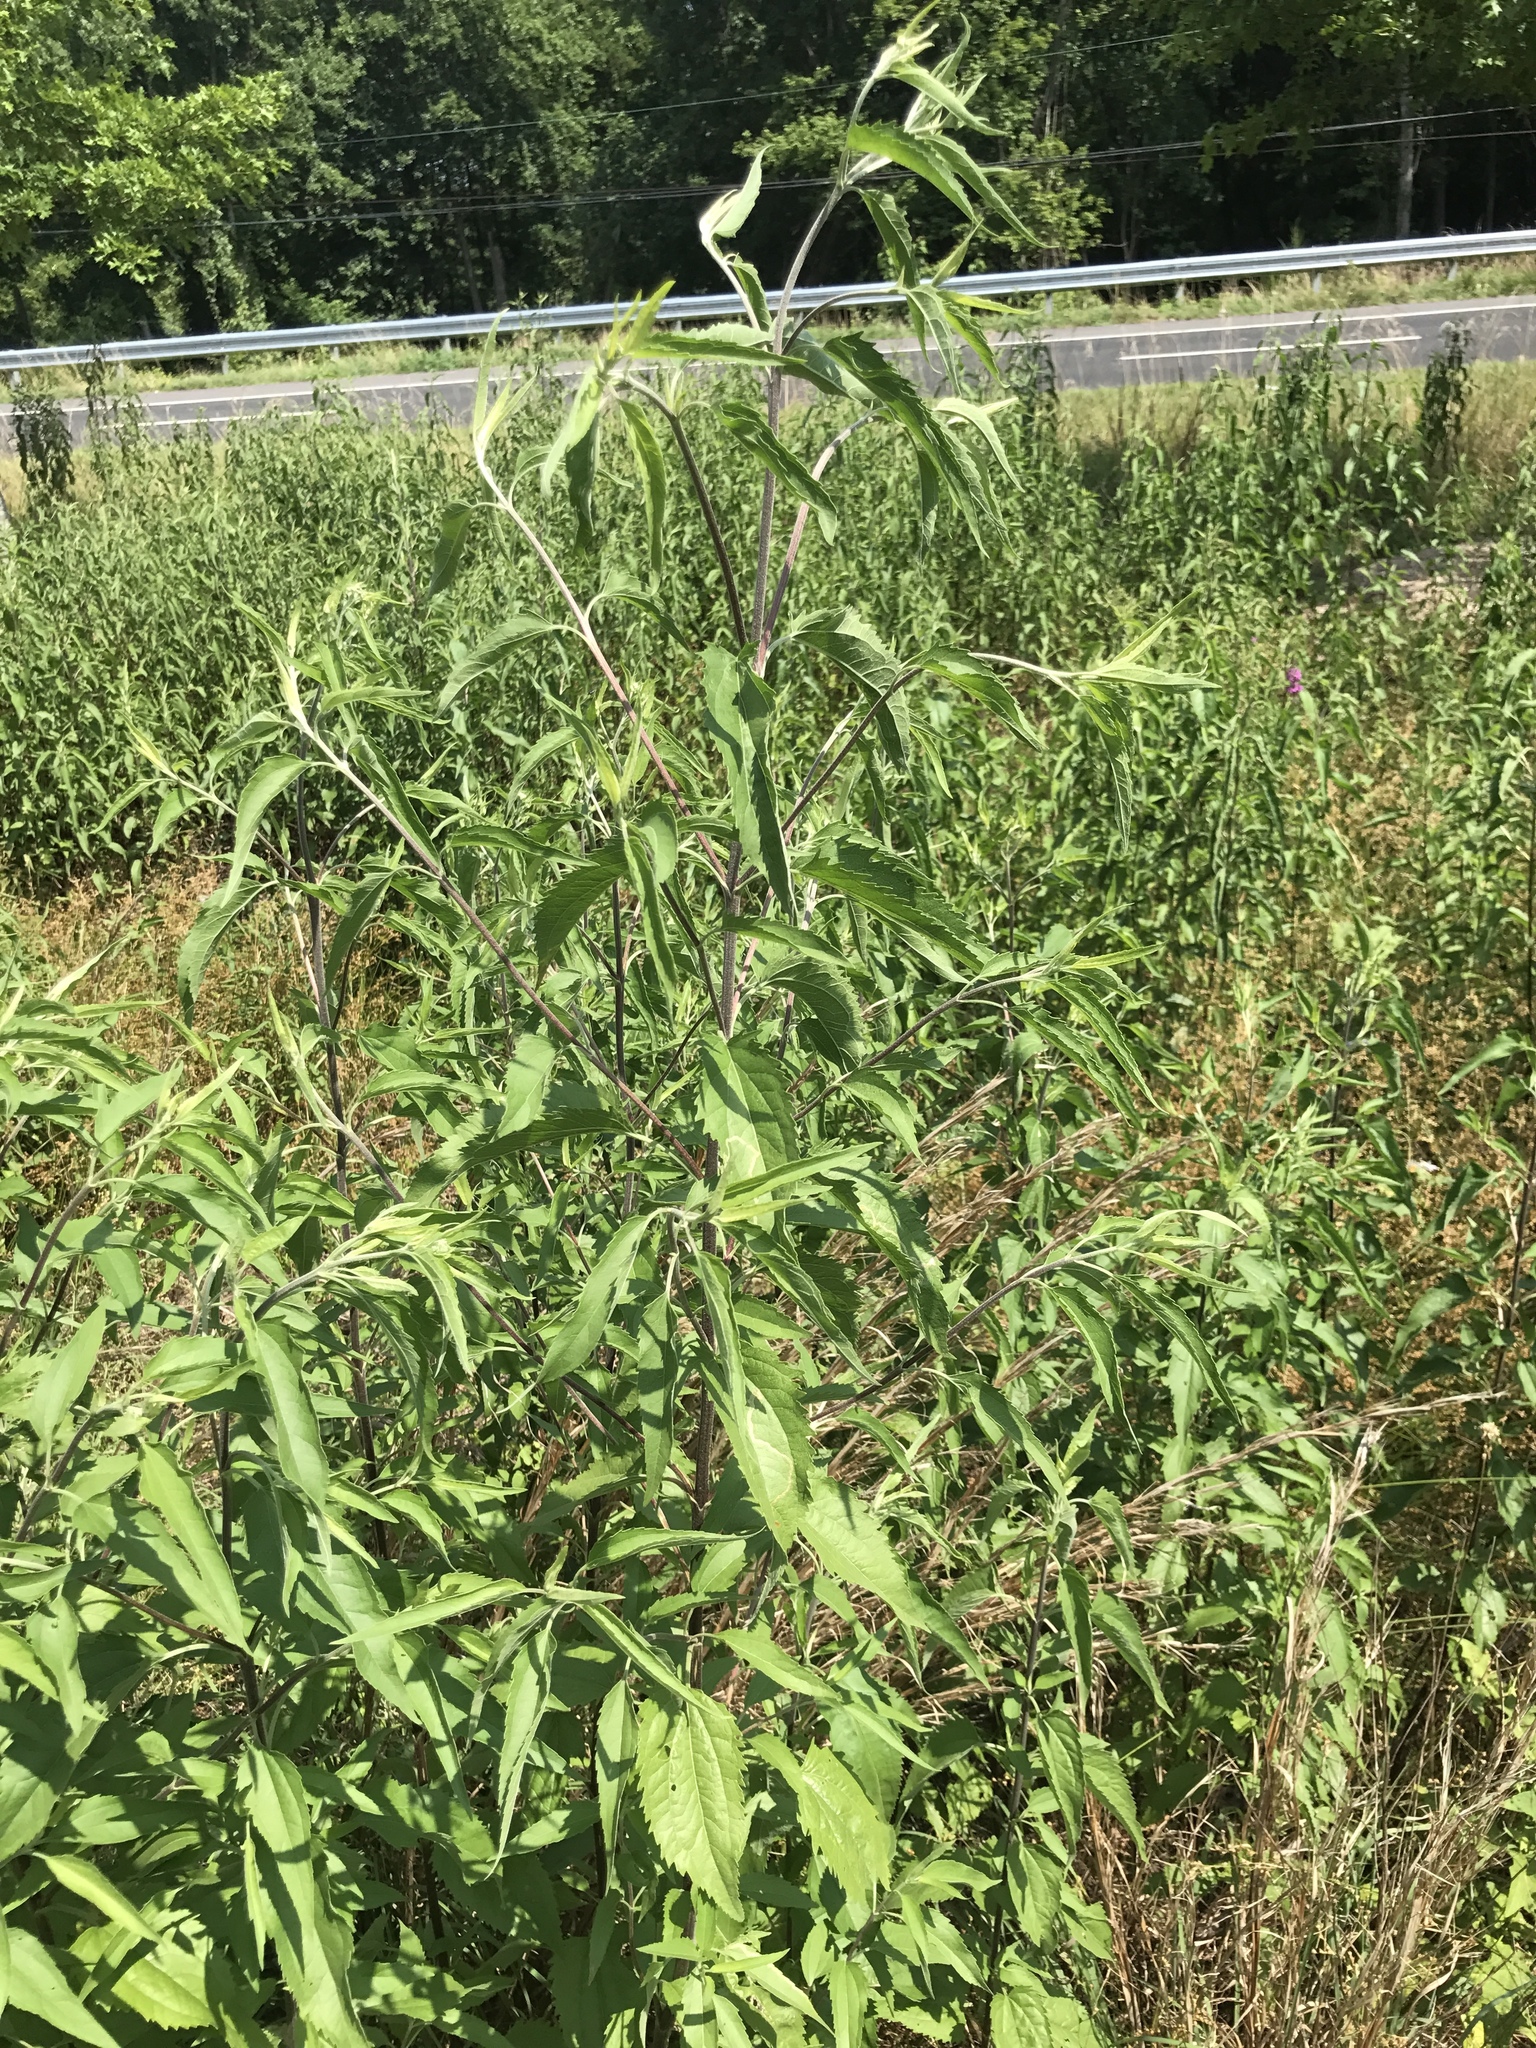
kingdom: Plantae
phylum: Tracheophyta
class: Magnoliopsida
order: Asterales
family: Asteraceae
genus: Eupatorium
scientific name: Eupatorium serotinum
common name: Late boneset
